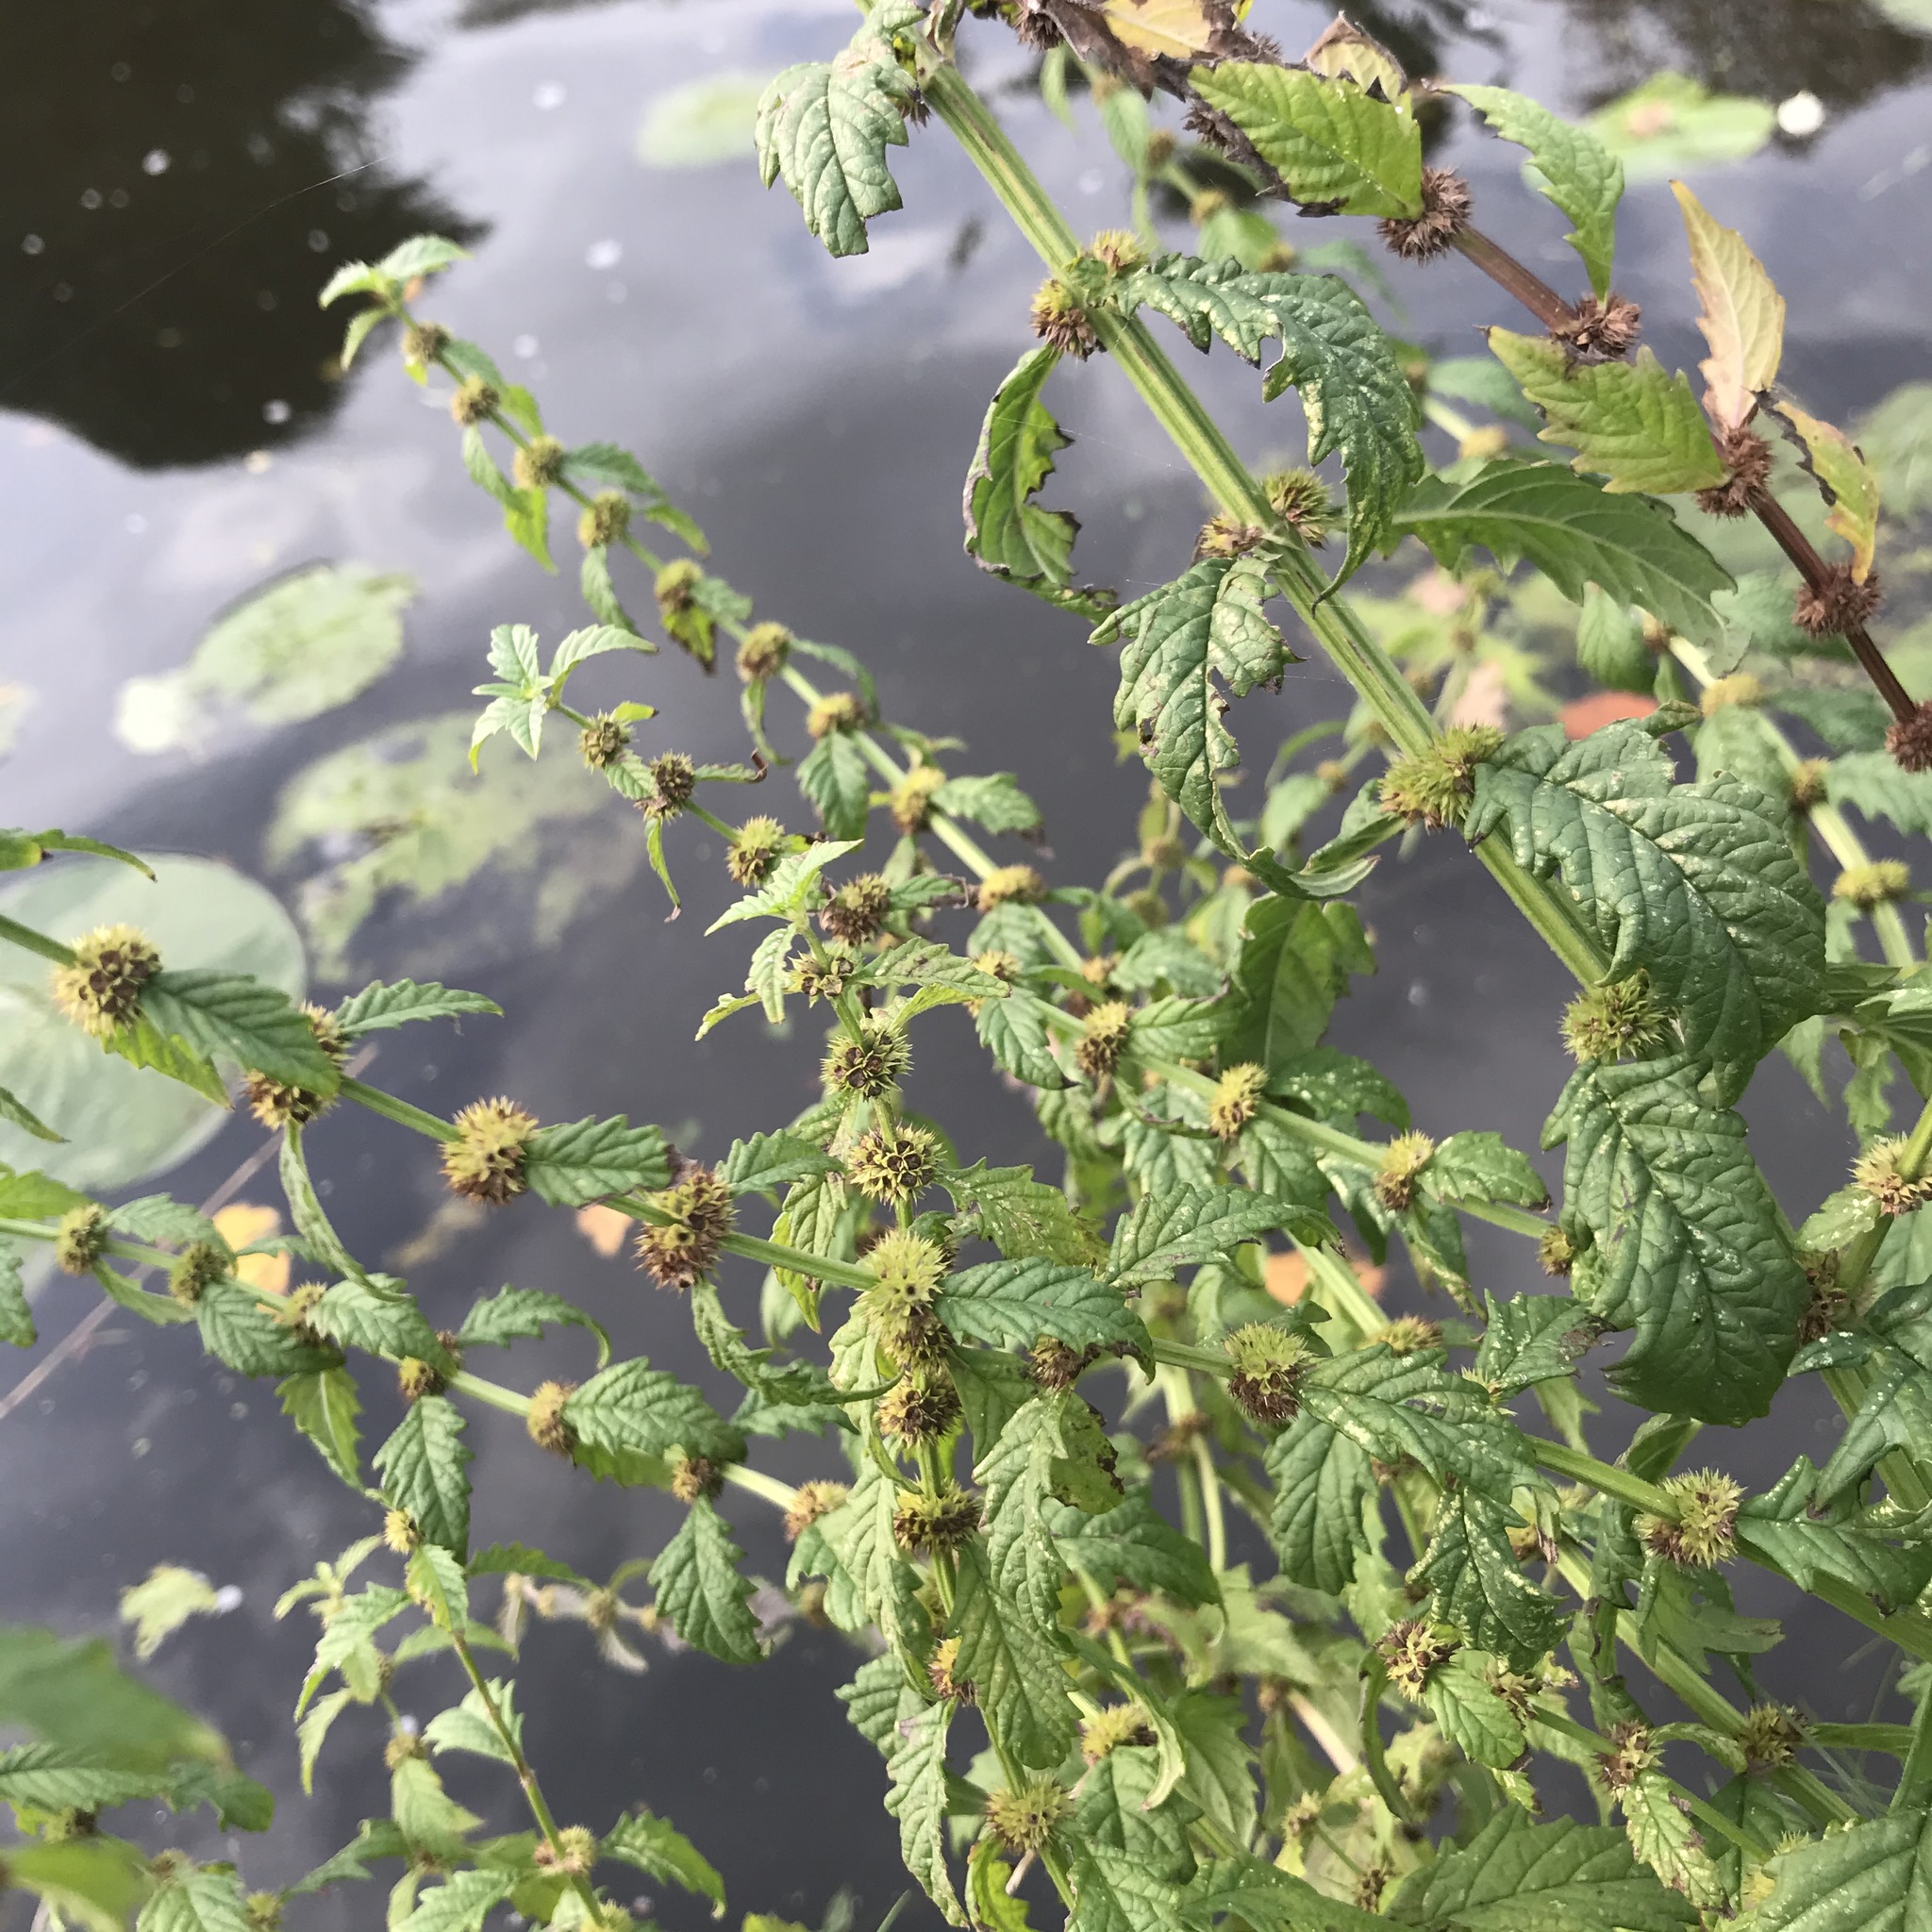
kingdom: Plantae
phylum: Tracheophyta
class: Magnoliopsida
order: Lamiales
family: Lamiaceae
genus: Lycopus
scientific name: Lycopus europaeus
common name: European bugleweed
